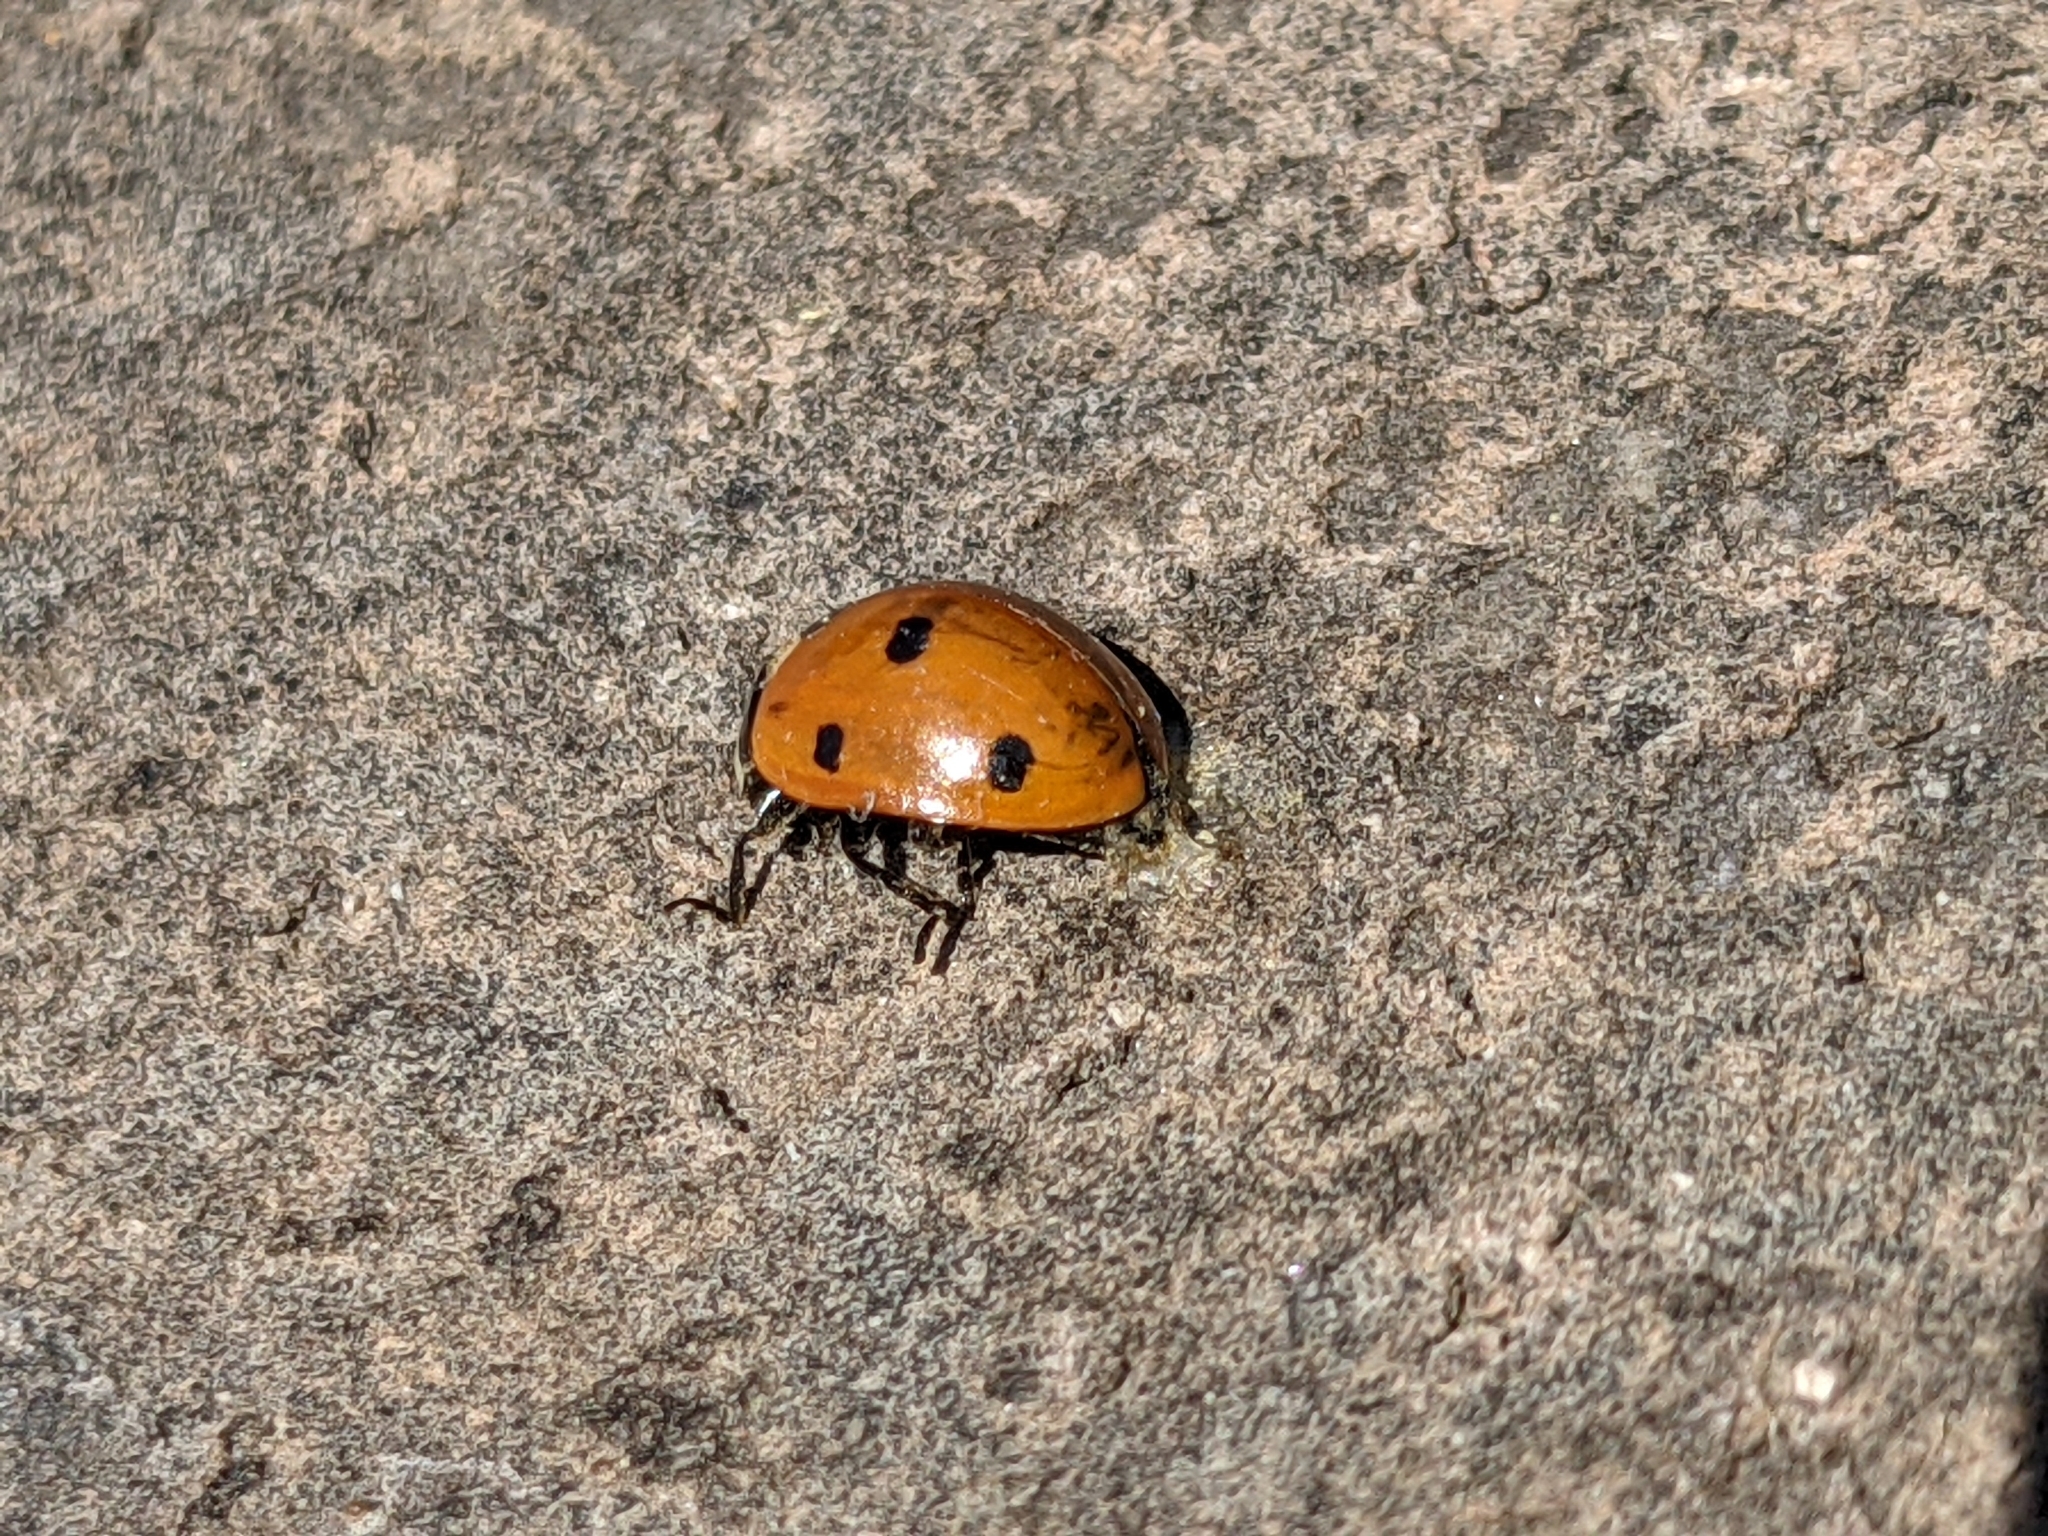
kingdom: Animalia
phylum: Arthropoda
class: Insecta
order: Coleoptera
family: Coccinellidae
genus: Coccinella
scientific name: Coccinella septempunctata
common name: Sevenspotted lady beetle
